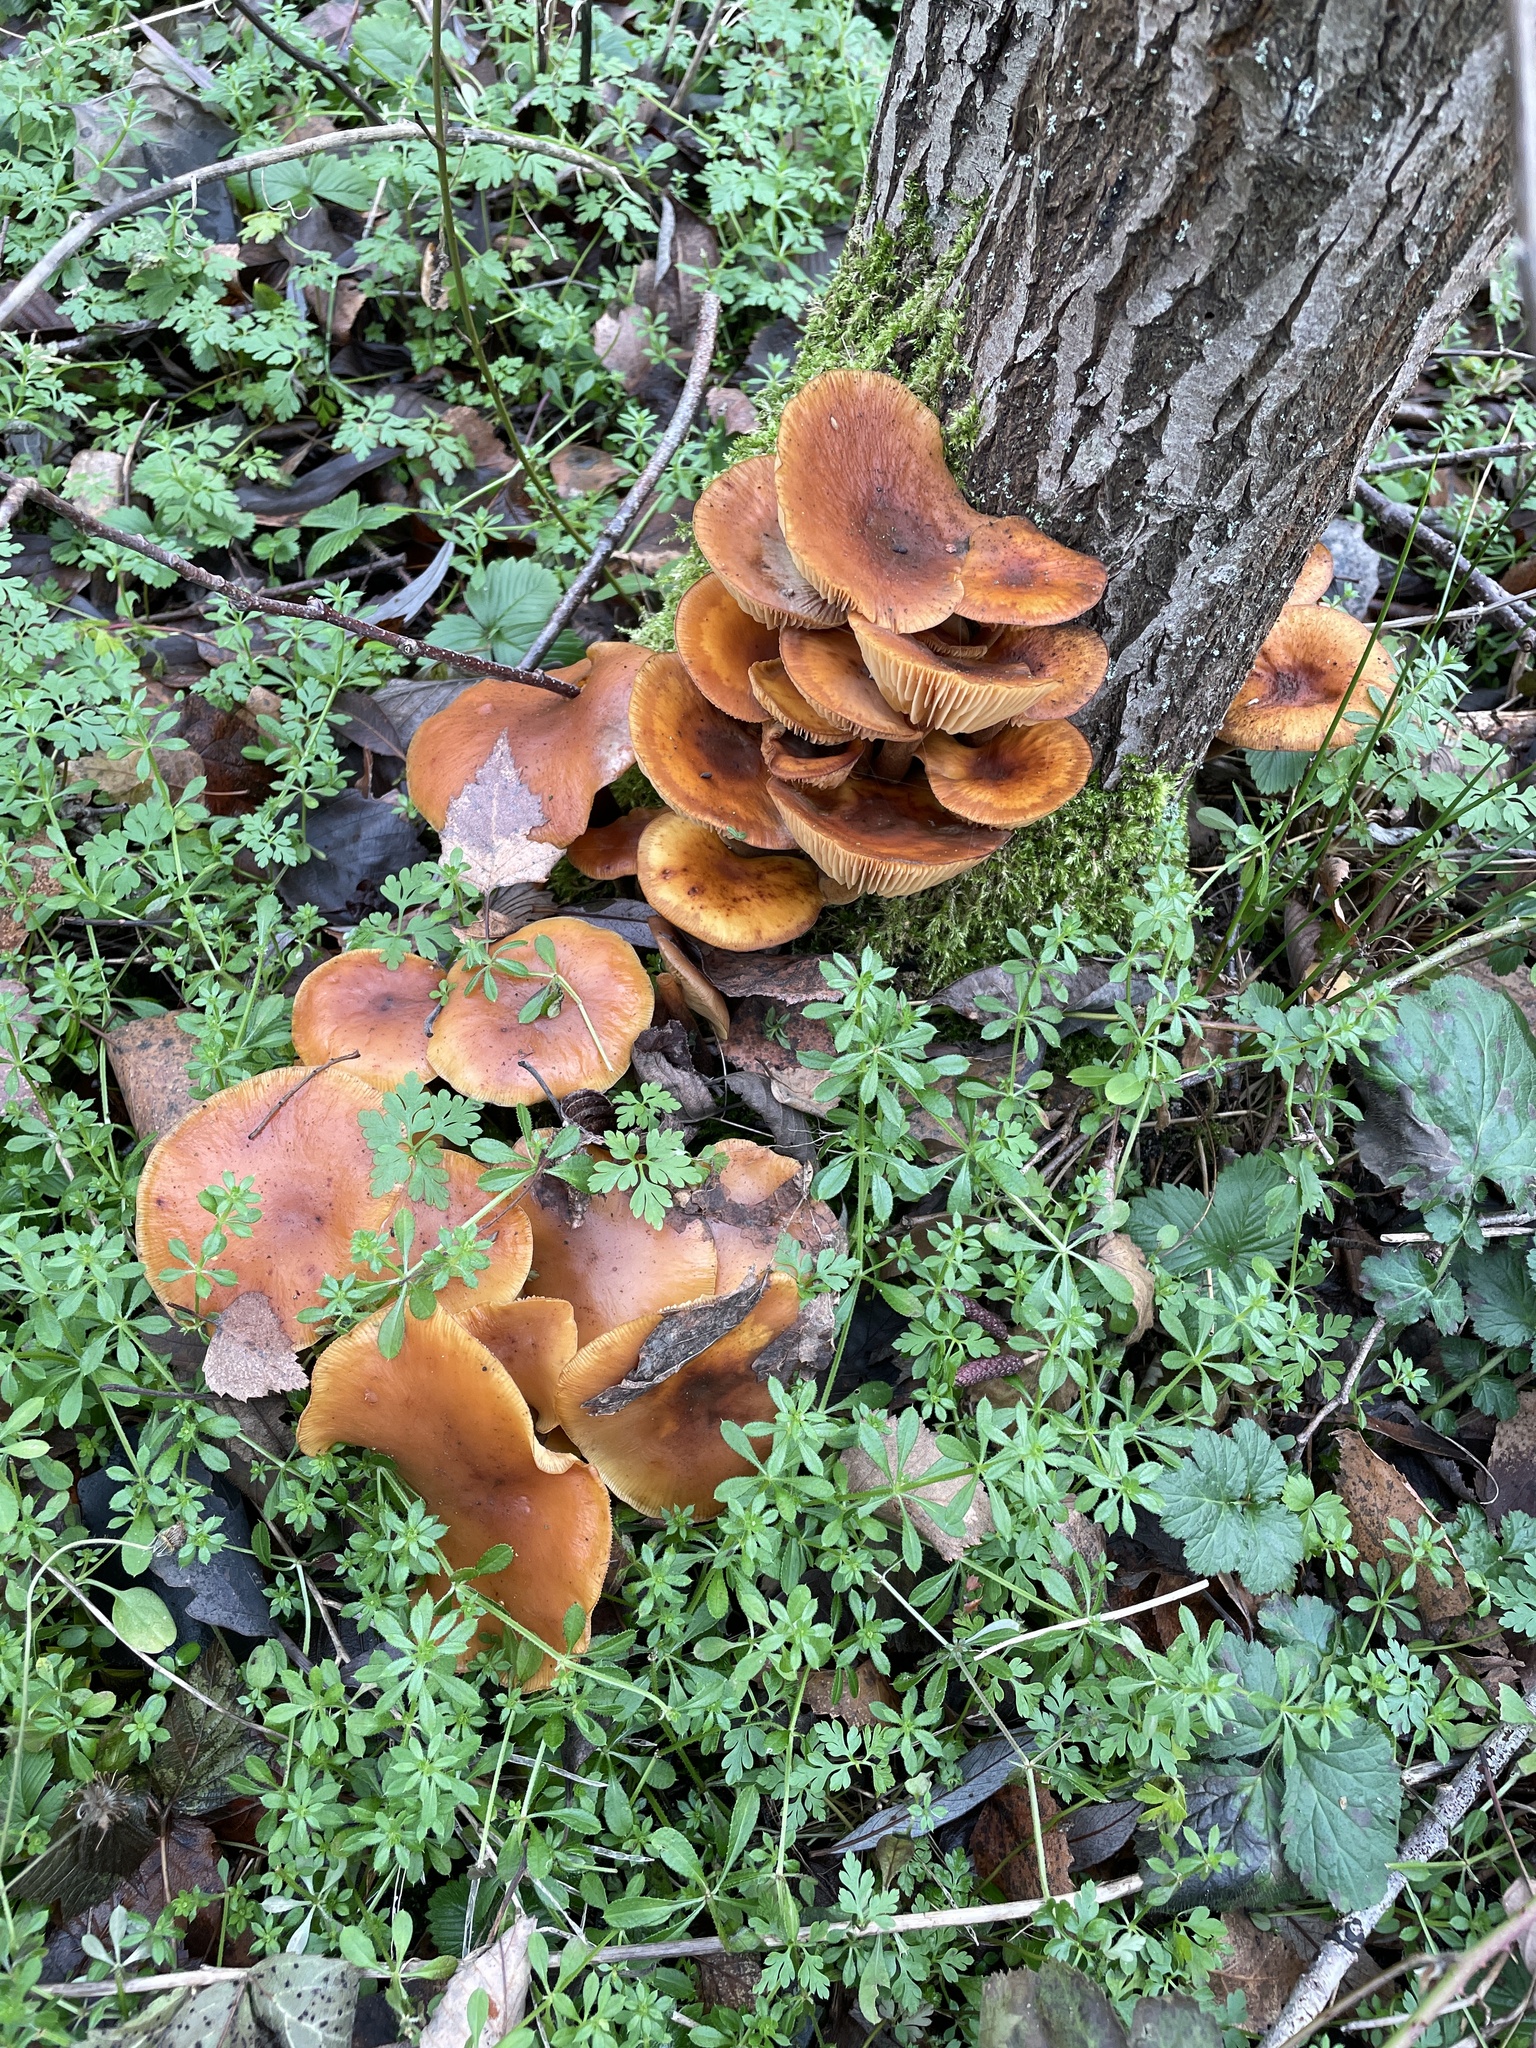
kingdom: Fungi
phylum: Basidiomycota
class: Agaricomycetes
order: Agaricales
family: Physalacriaceae
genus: Flammulina
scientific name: Flammulina
